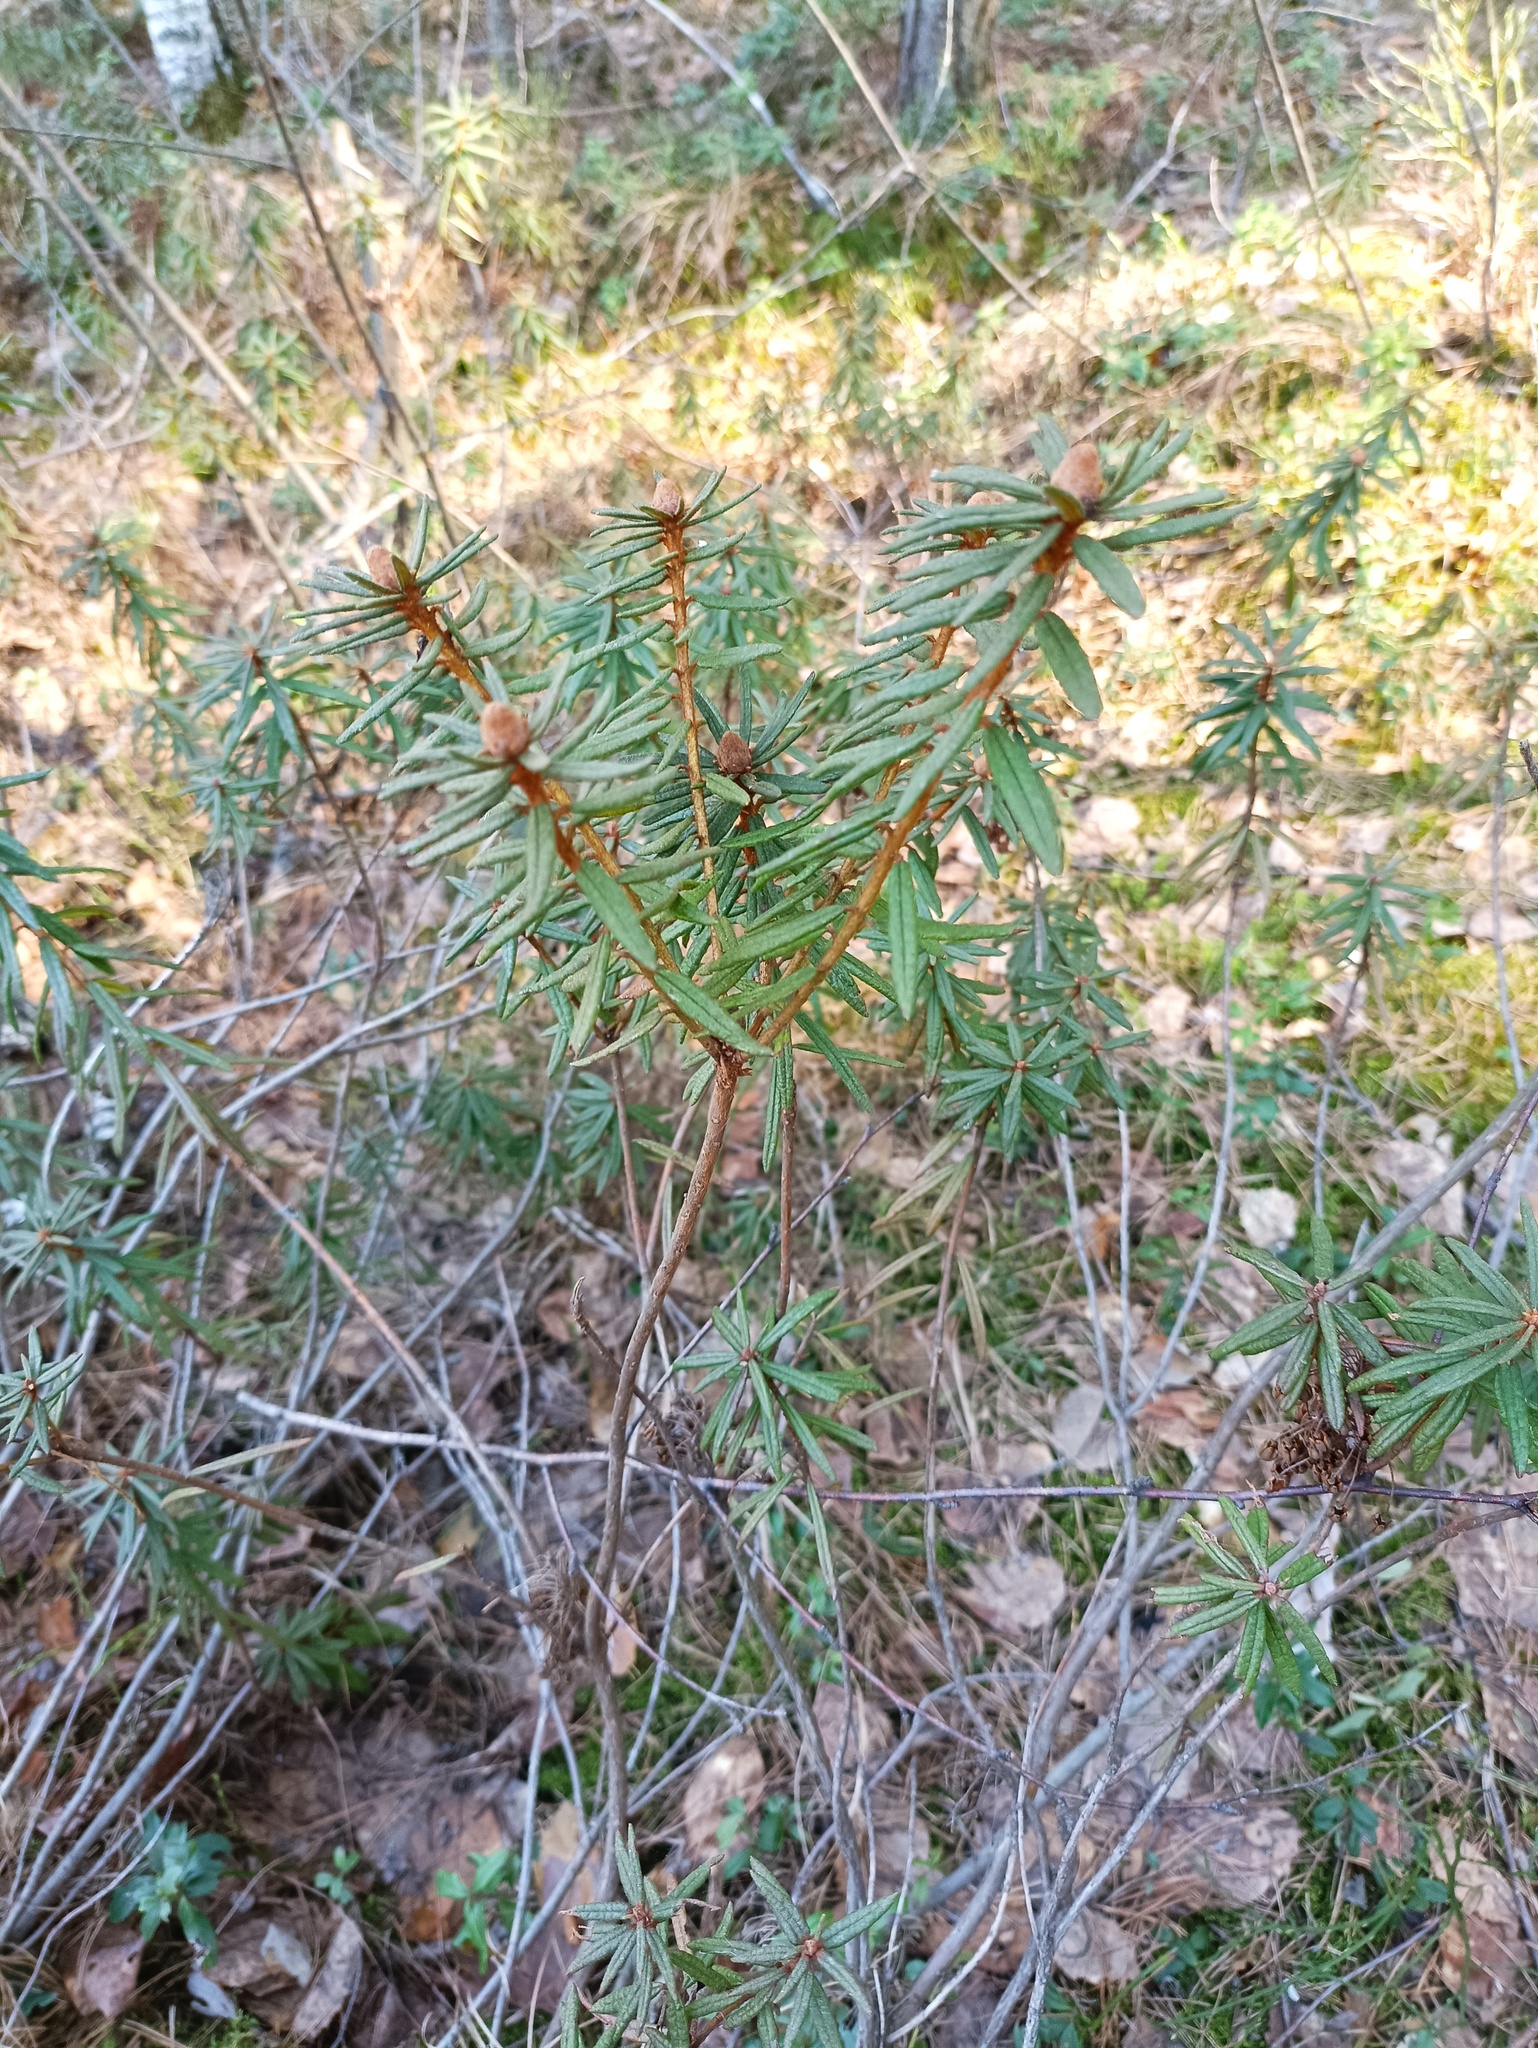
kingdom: Plantae
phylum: Tracheophyta
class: Magnoliopsida
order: Ericales
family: Ericaceae
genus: Rhododendron
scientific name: Rhododendron tomentosum
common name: Marsh labrador tea
